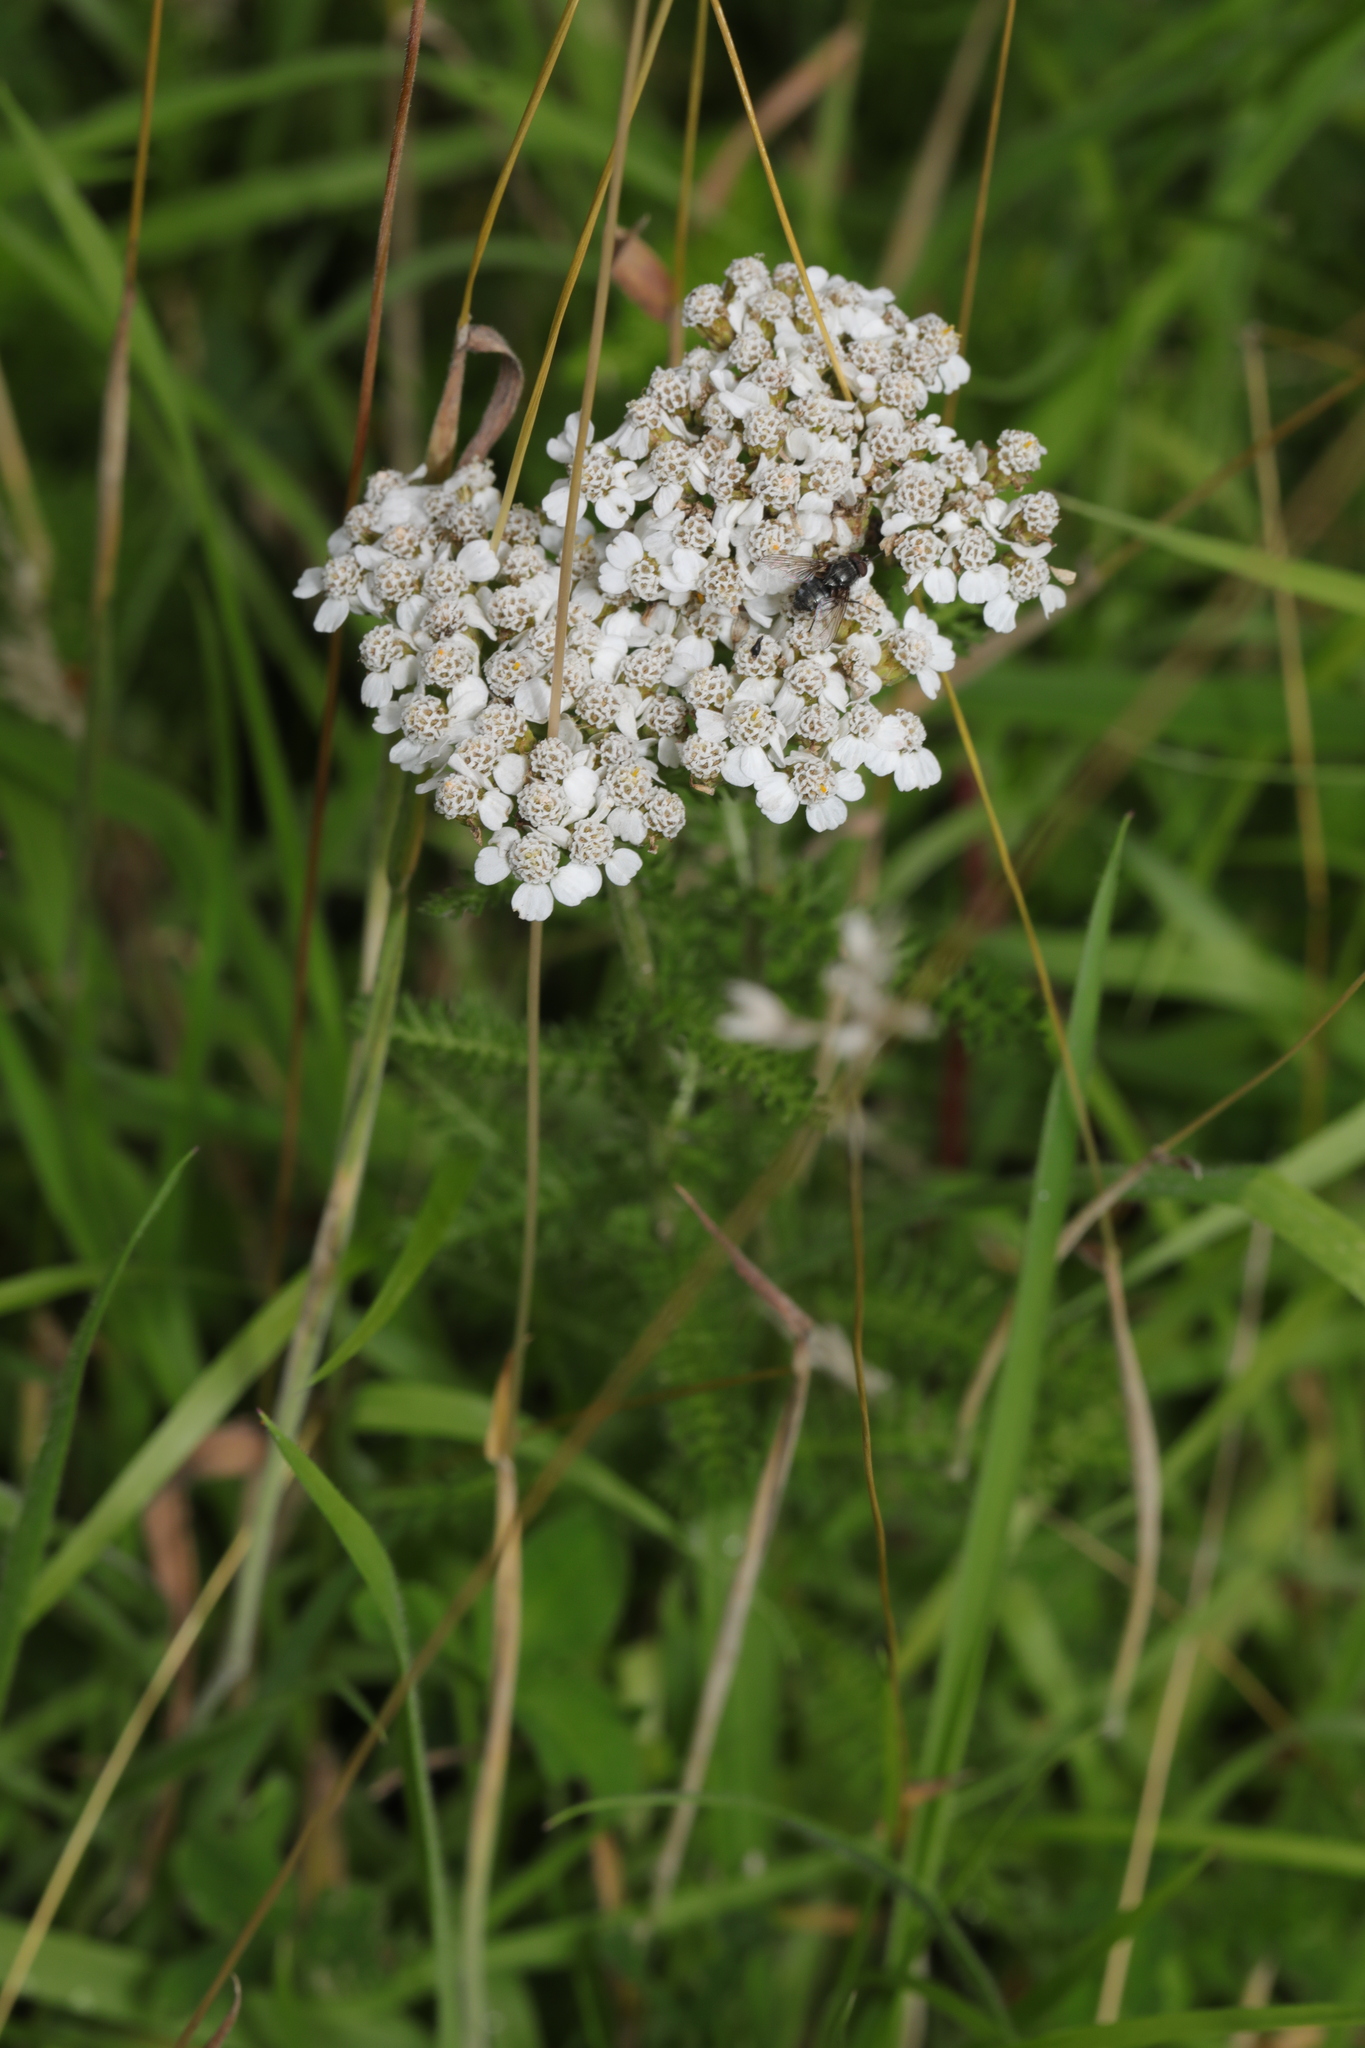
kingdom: Plantae
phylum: Tracheophyta
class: Magnoliopsida
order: Asterales
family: Asteraceae
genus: Achillea
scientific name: Achillea millefolium
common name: Yarrow
